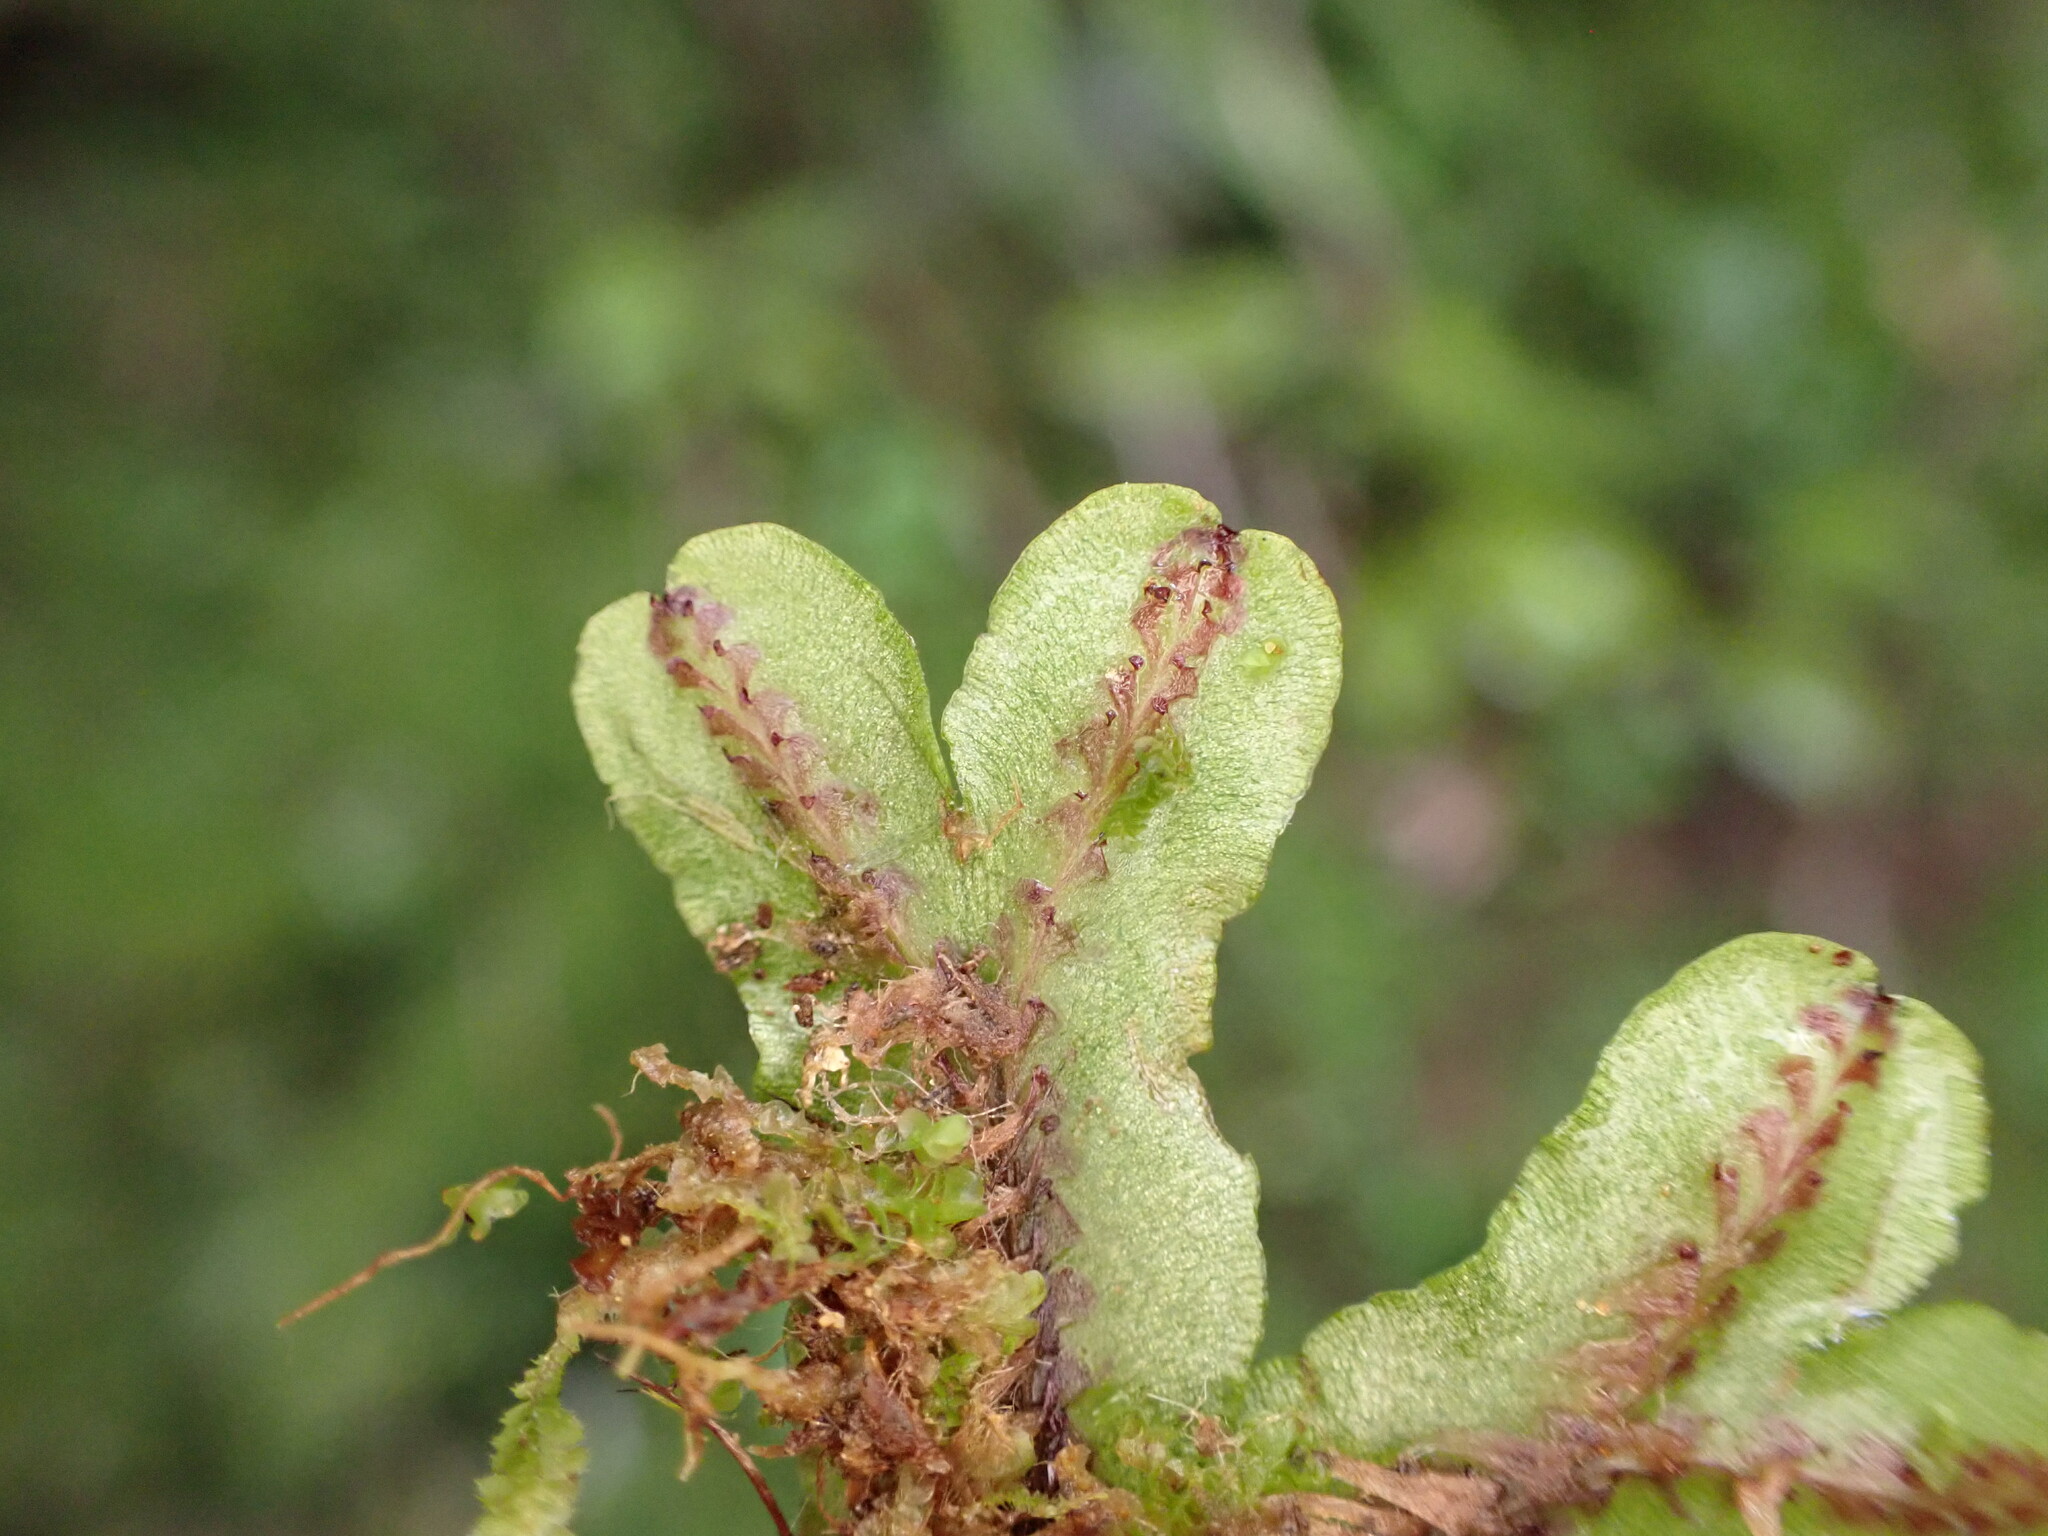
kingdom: Plantae
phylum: Marchantiophyta
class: Marchantiopsida
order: Marchantiales
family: Marchantiaceae
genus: Marchantia
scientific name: Marchantia foliacea
